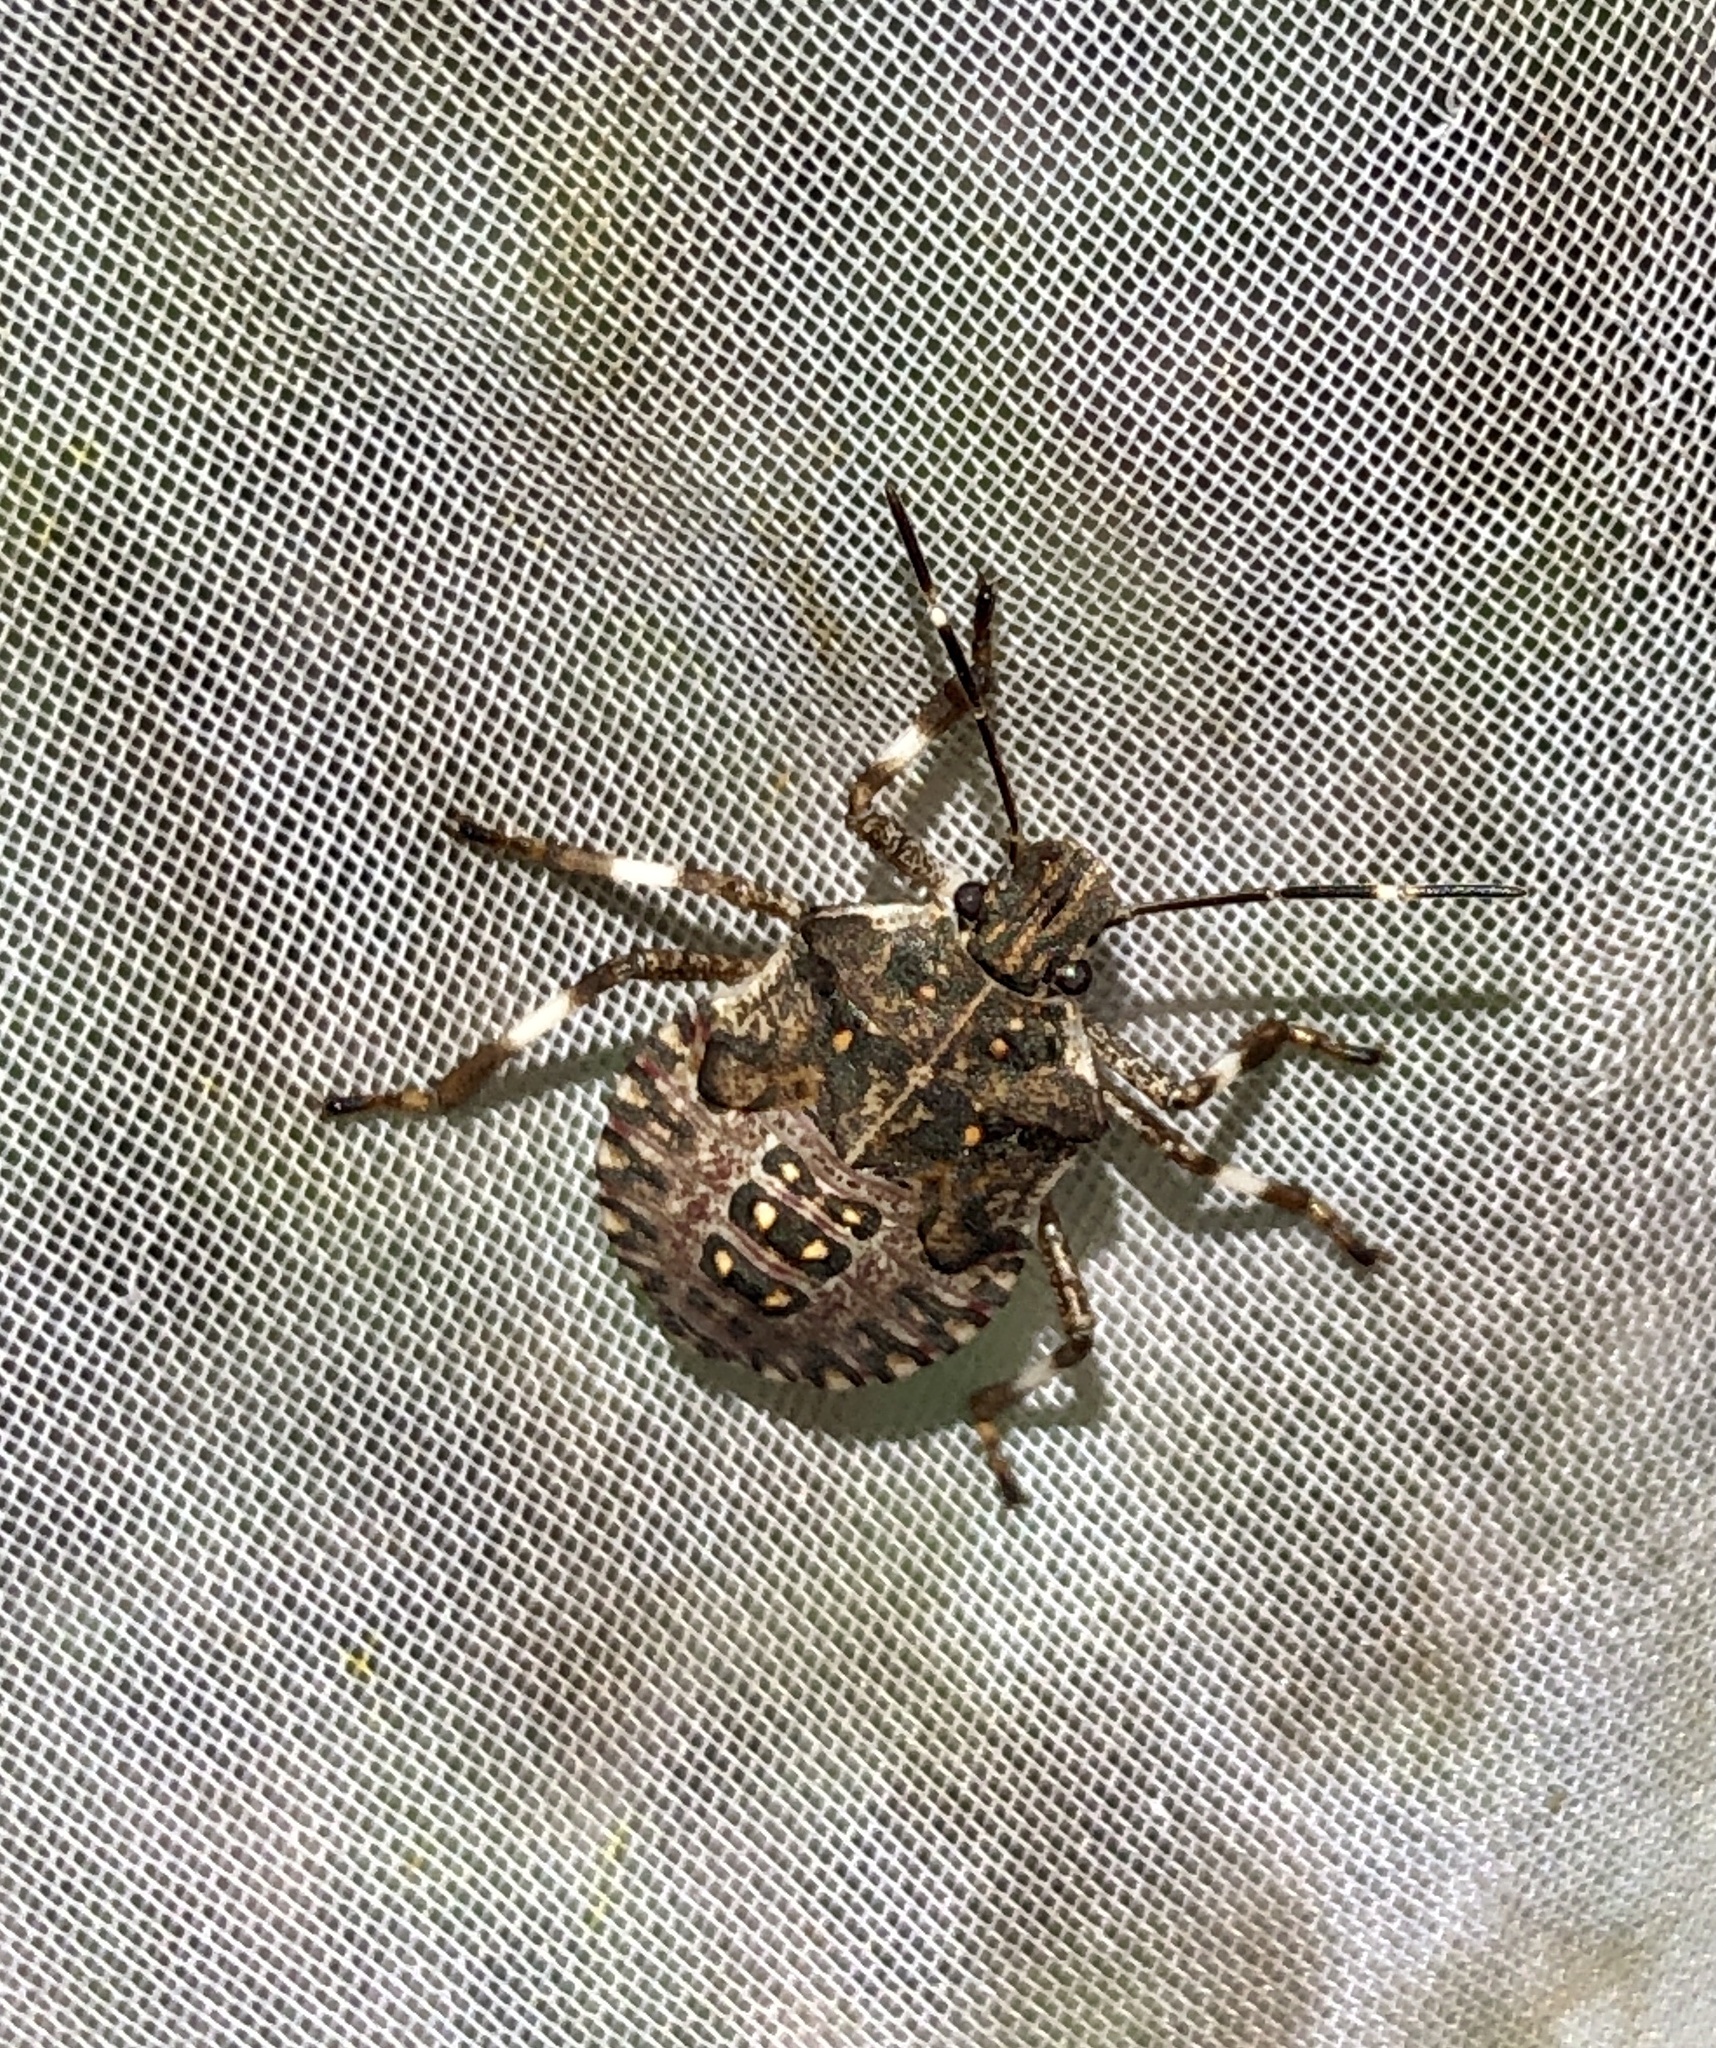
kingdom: Animalia
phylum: Arthropoda
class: Insecta
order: Hemiptera
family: Pentatomidae
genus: Halyomorpha
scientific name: Halyomorpha halys
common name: Brown marmorated stink bug
